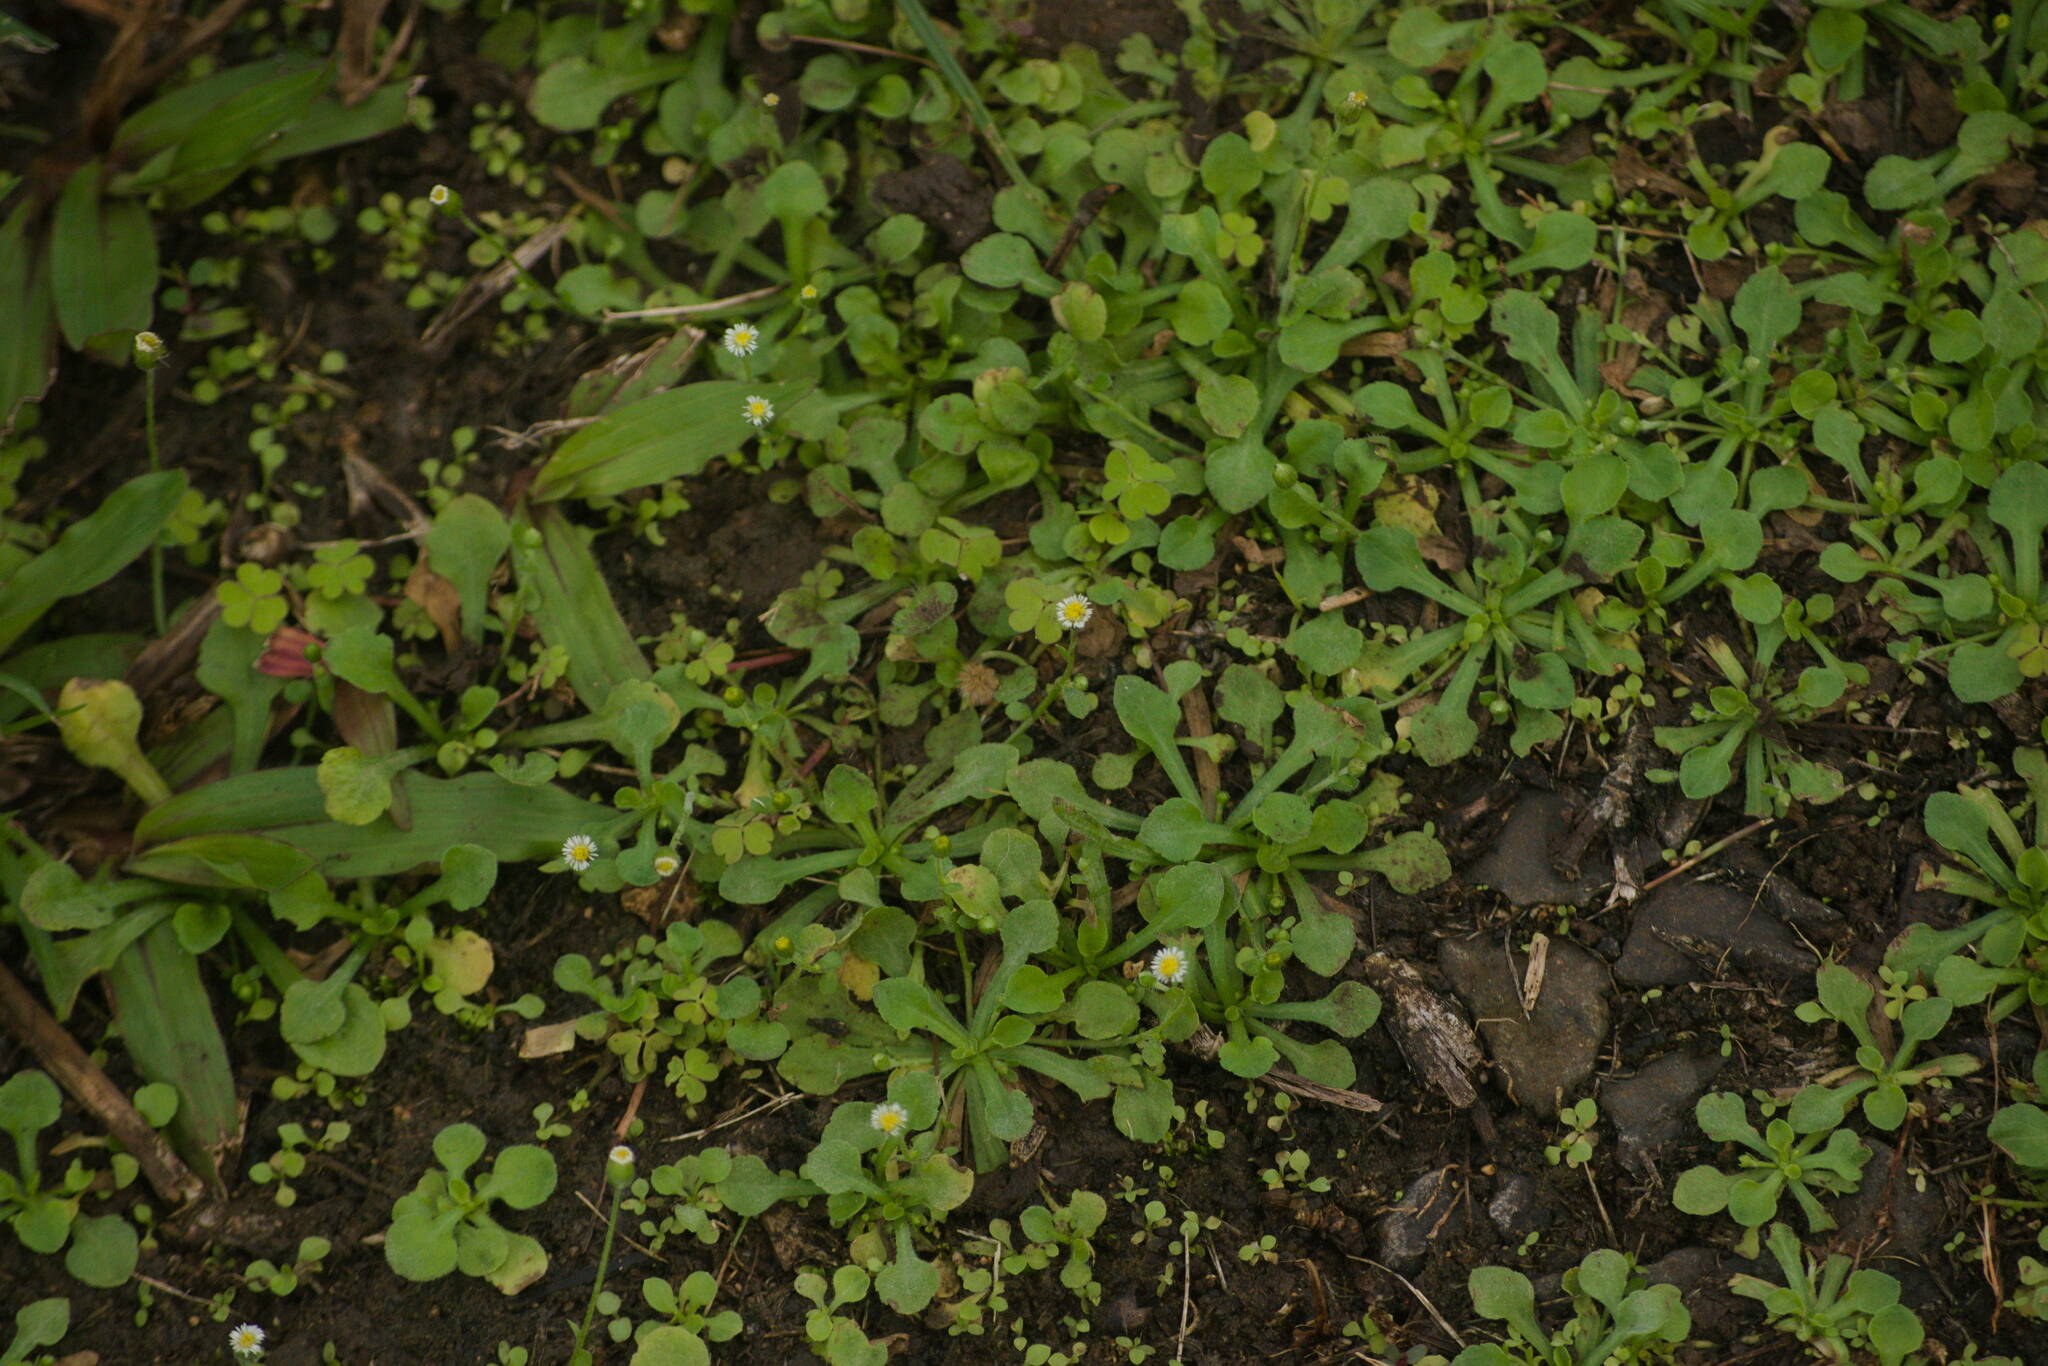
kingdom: Plantae
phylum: Tracheophyta
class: Magnoliopsida
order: Asterales
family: Asteraceae
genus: Erigeron
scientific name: Erigeron bellioides
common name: Bellorita
